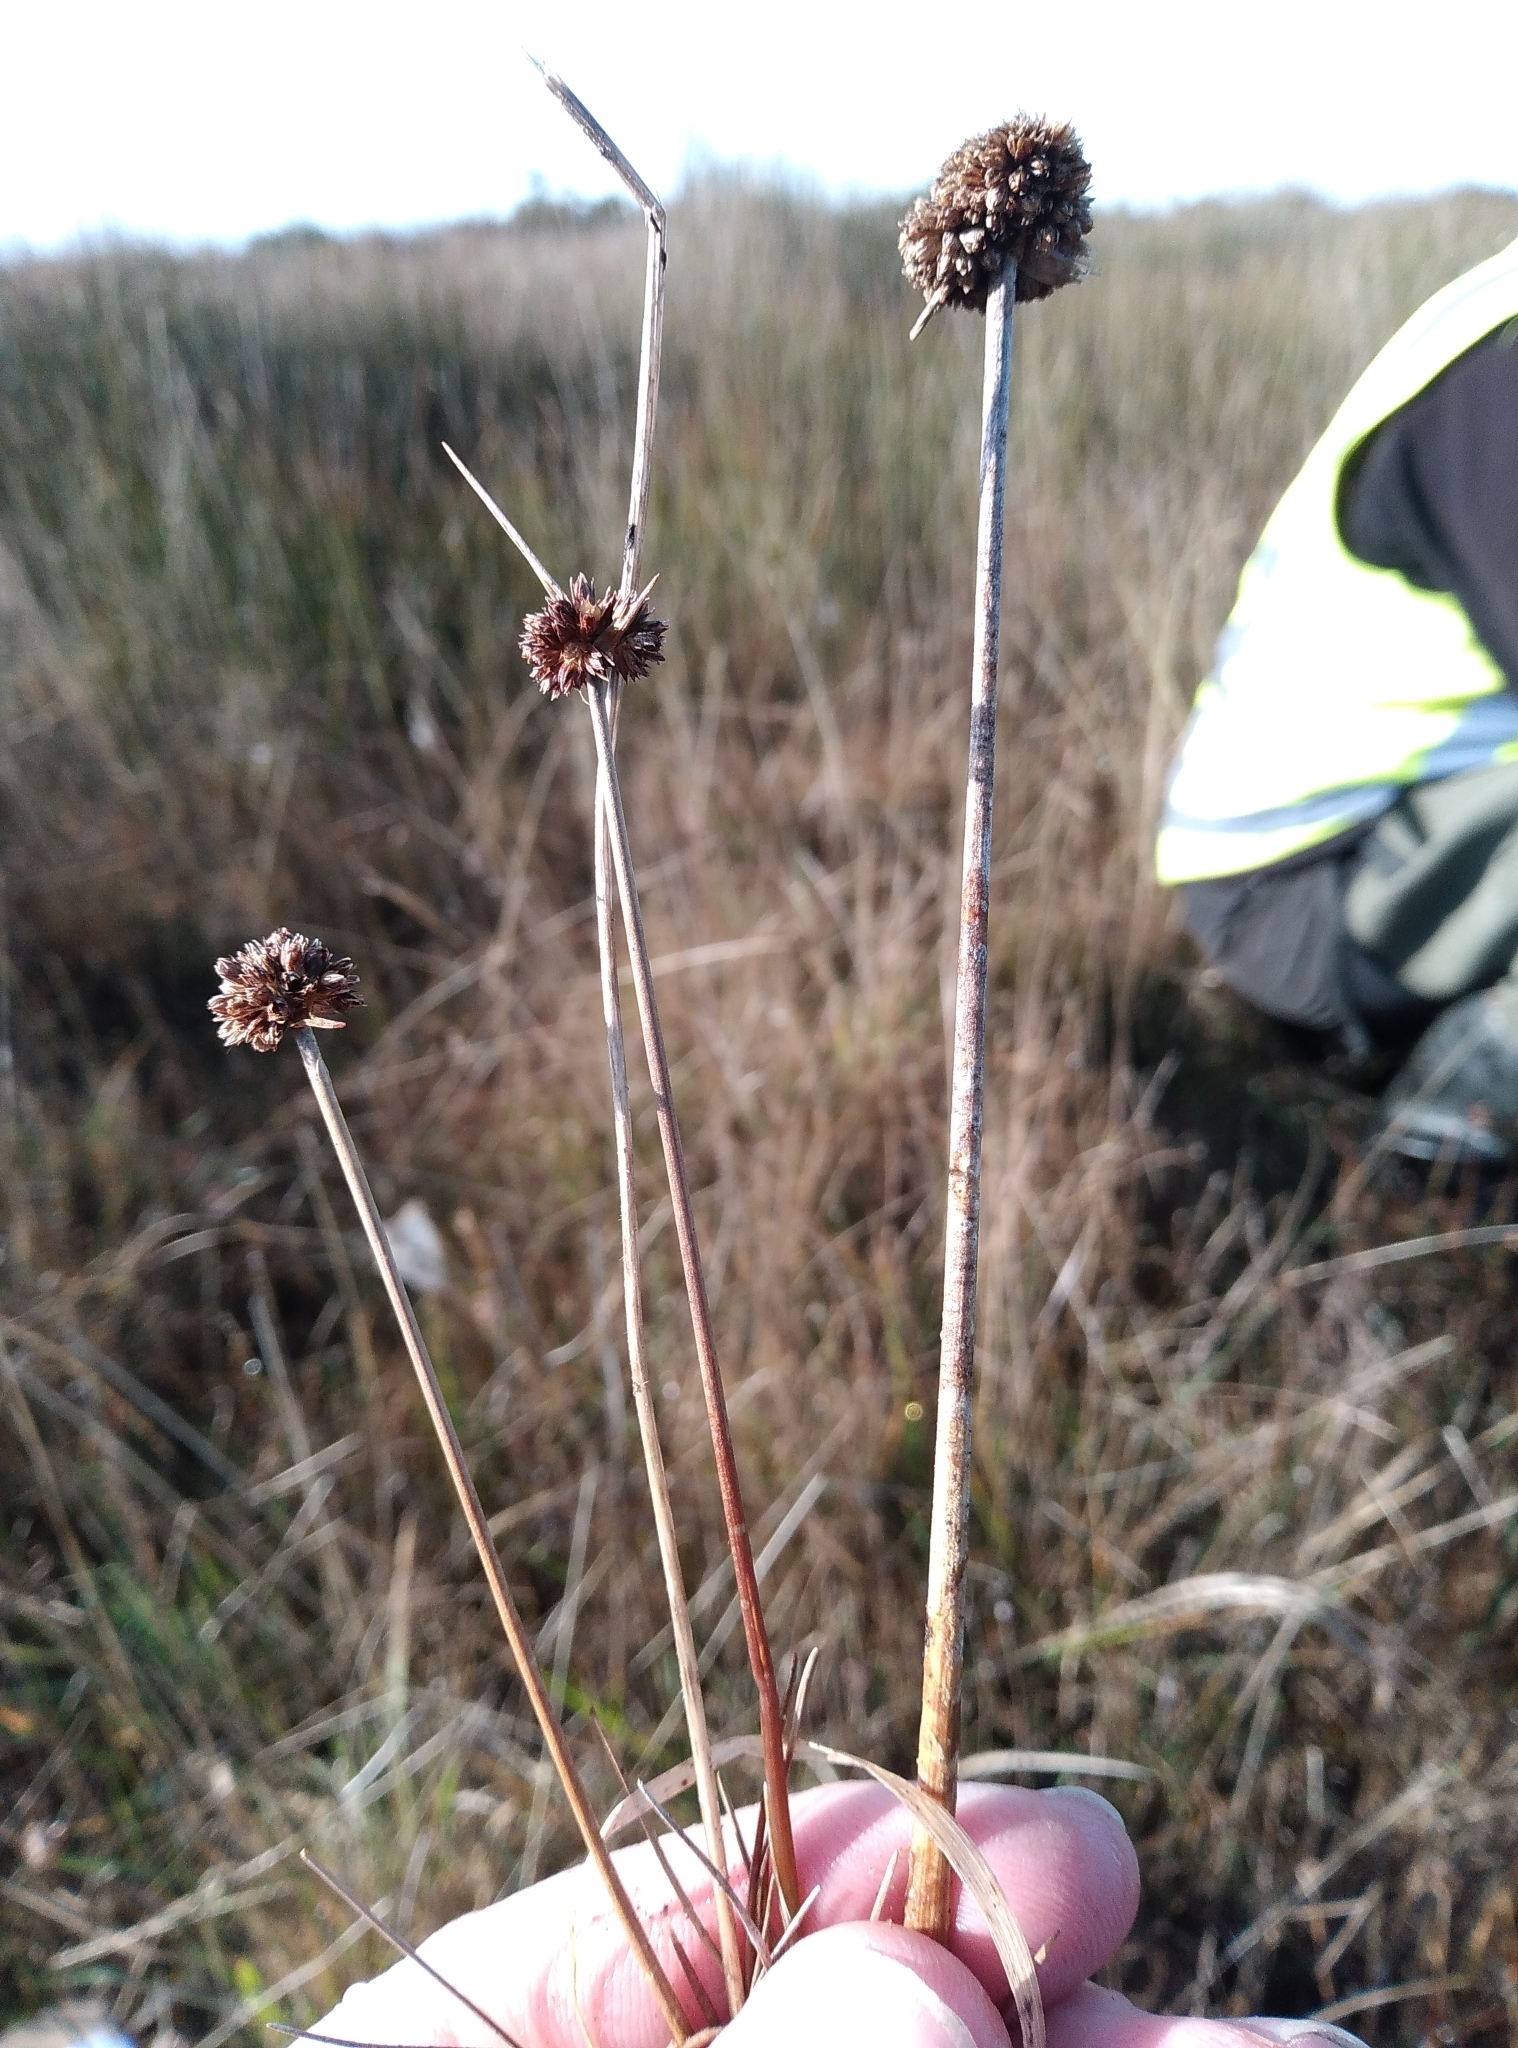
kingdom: Plantae
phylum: Tracheophyta
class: Liliopsida
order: Poales
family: Juncaceae
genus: Juncus
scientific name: Juncus caespiticius
